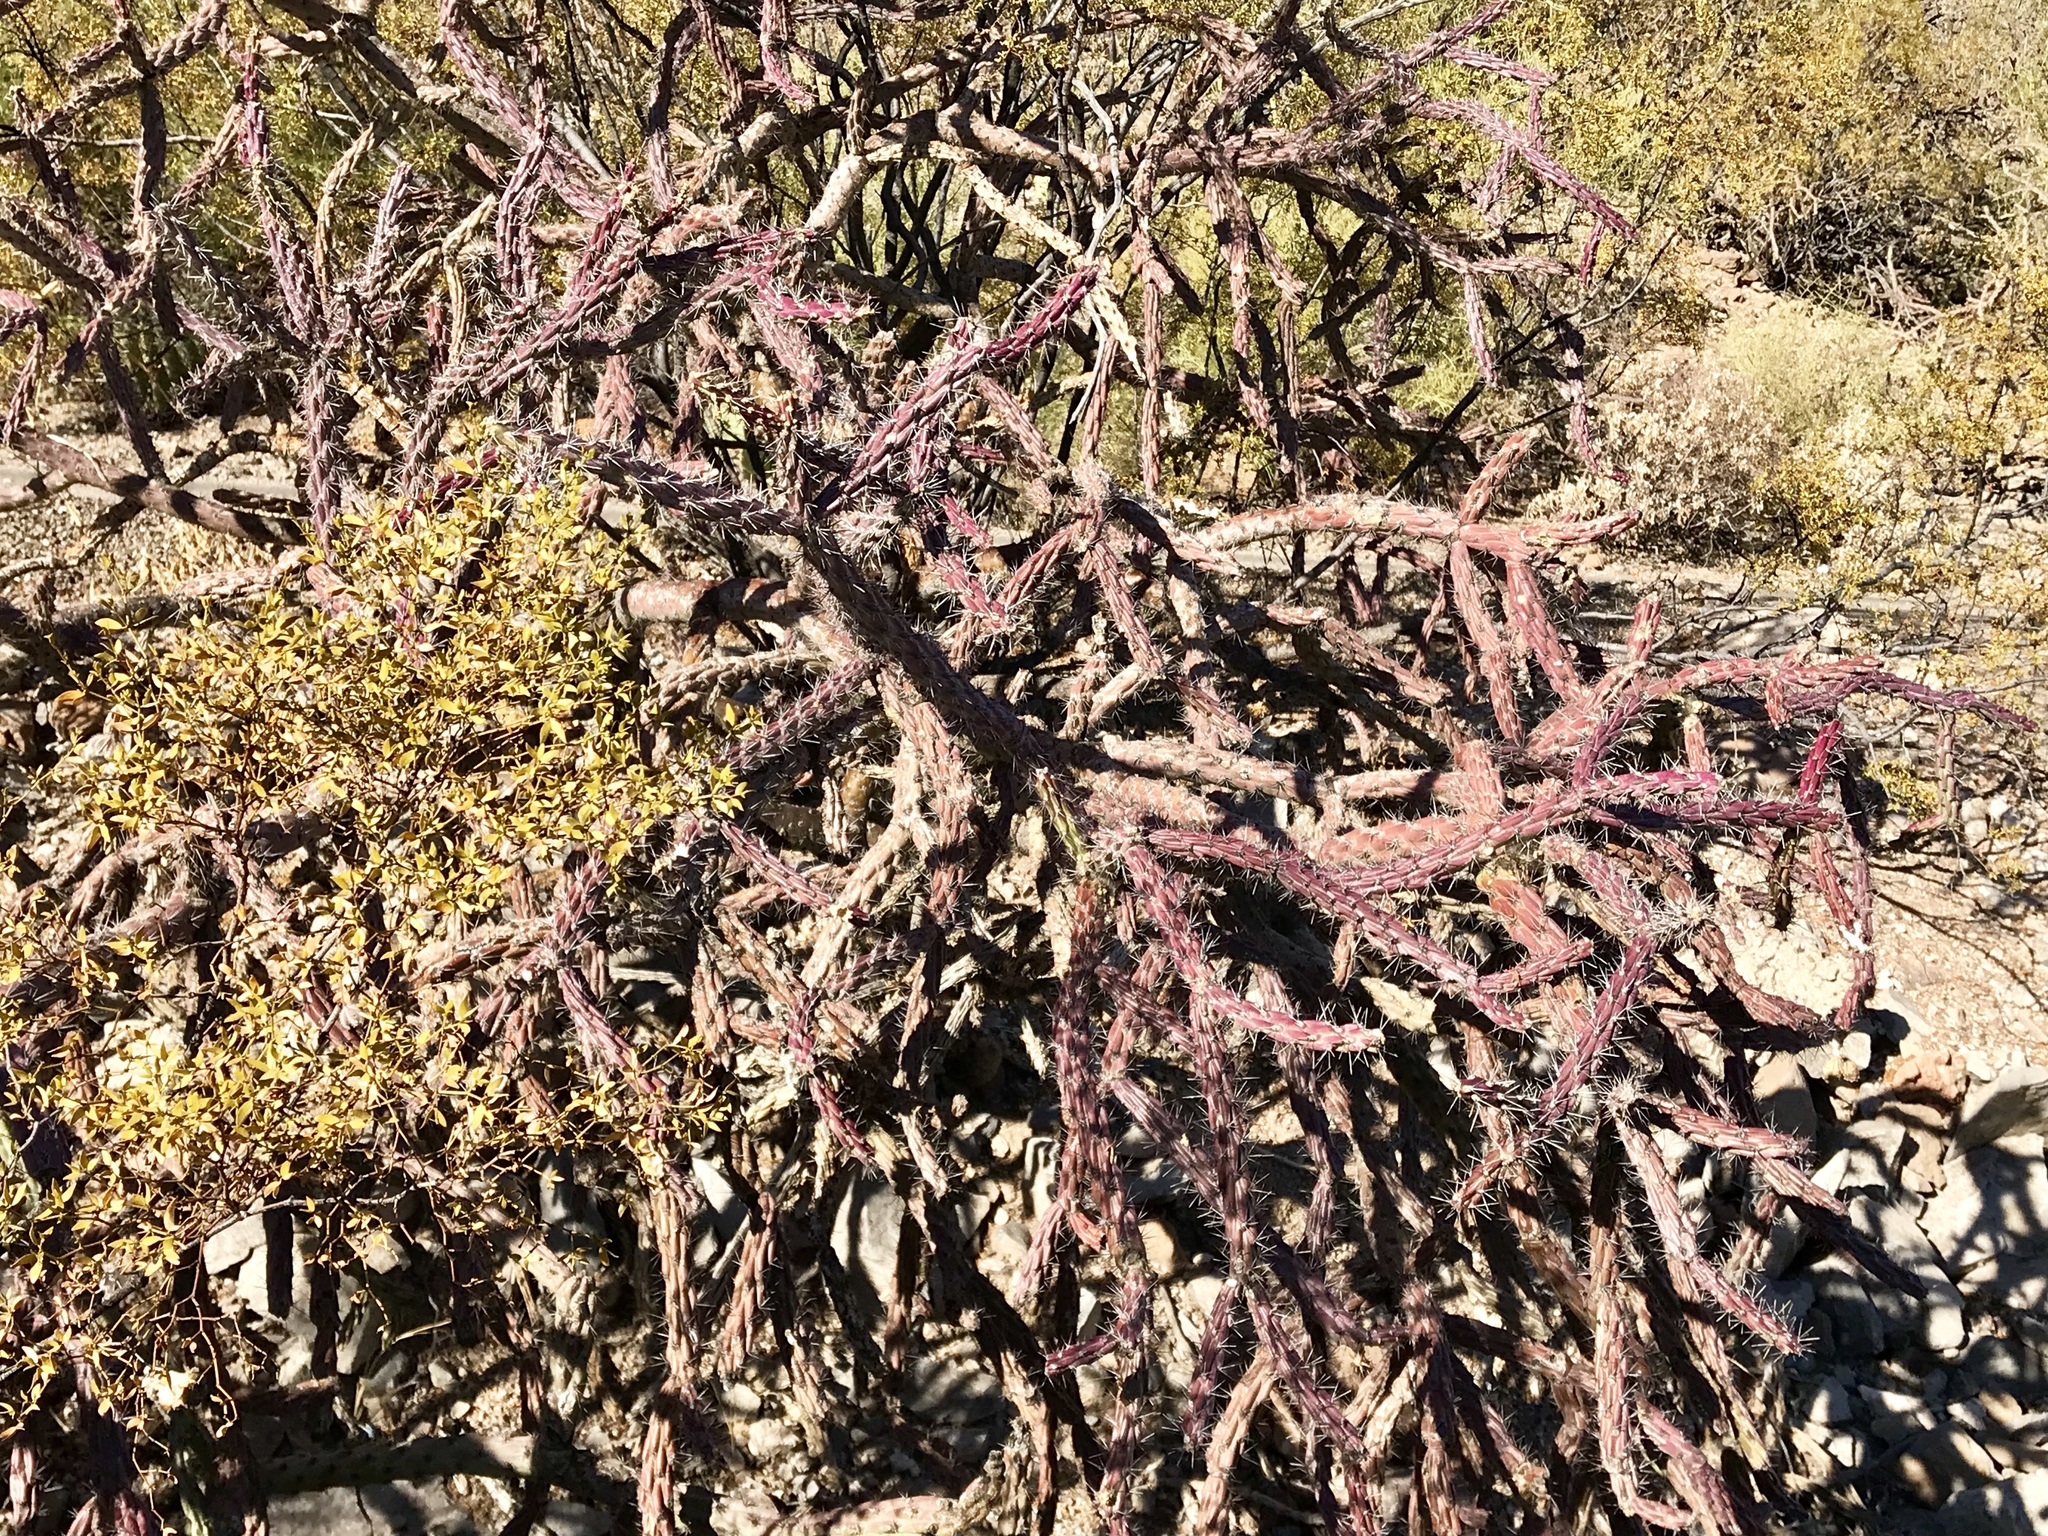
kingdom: Plantae
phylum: Tracheophyta
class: Magnoliopsida
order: Caryophyllales
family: Cactaceae
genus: Cylindropuntia
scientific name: Cylindropuntia thurberi
